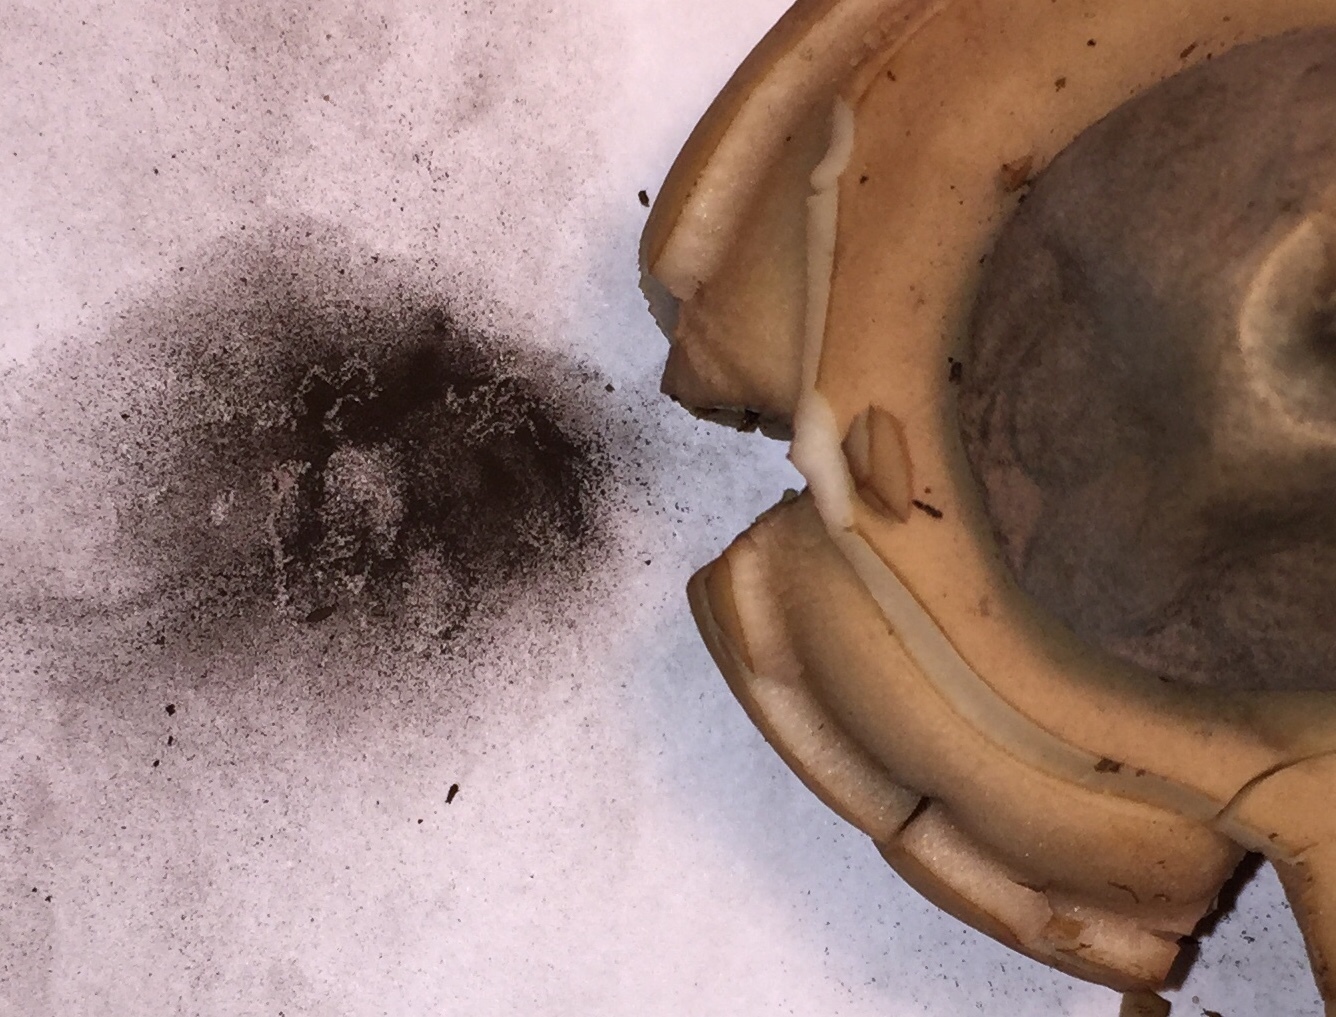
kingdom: Fungi
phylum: Basidiomycota
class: Agaricomycetes
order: Geastrales
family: Geastraceae
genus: Geastrum
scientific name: Geastrum saccatum
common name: Rounded earthstar
